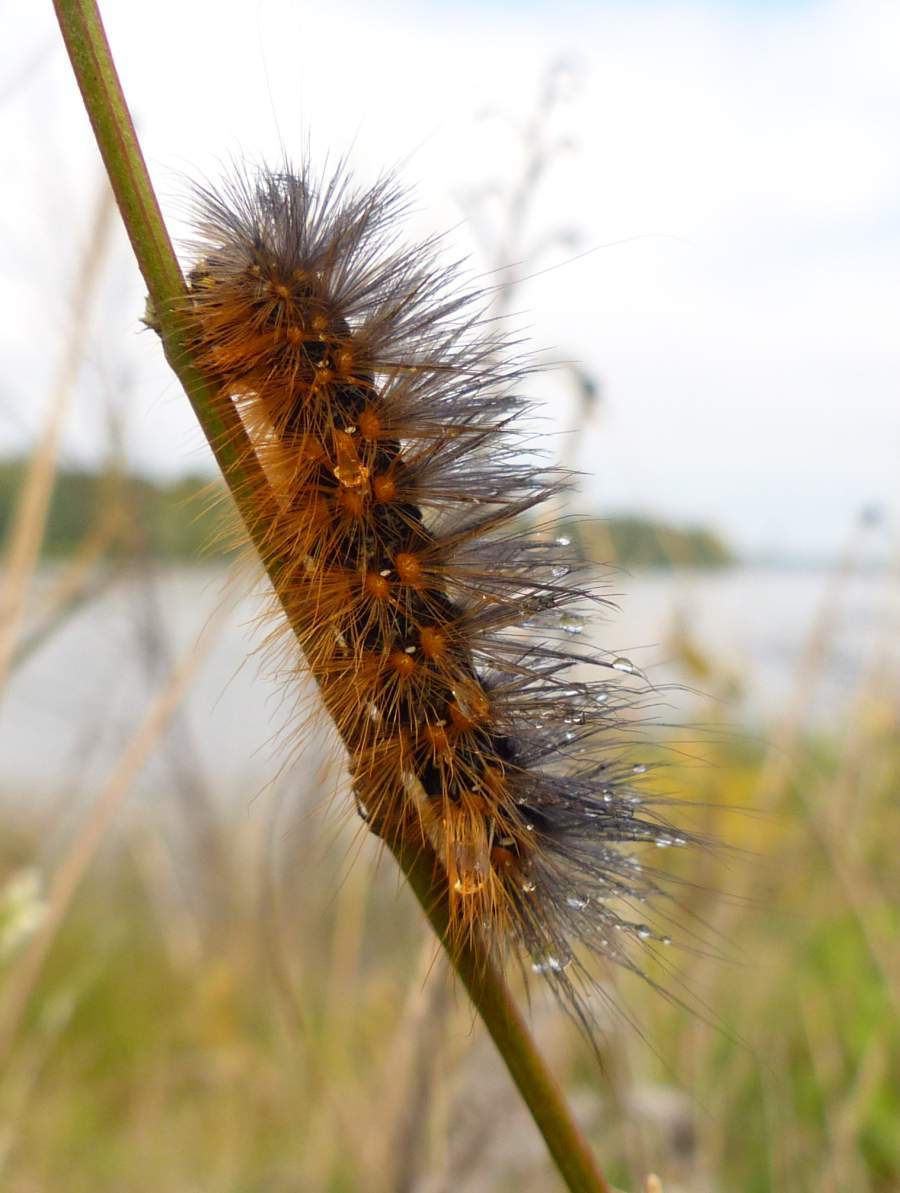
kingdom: Animalia
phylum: Arthropoda
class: Insecta
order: Lepidoptera
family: Erebidae
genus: Spilosoma
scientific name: Spilosoma virginica
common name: Virginia tiger moth
